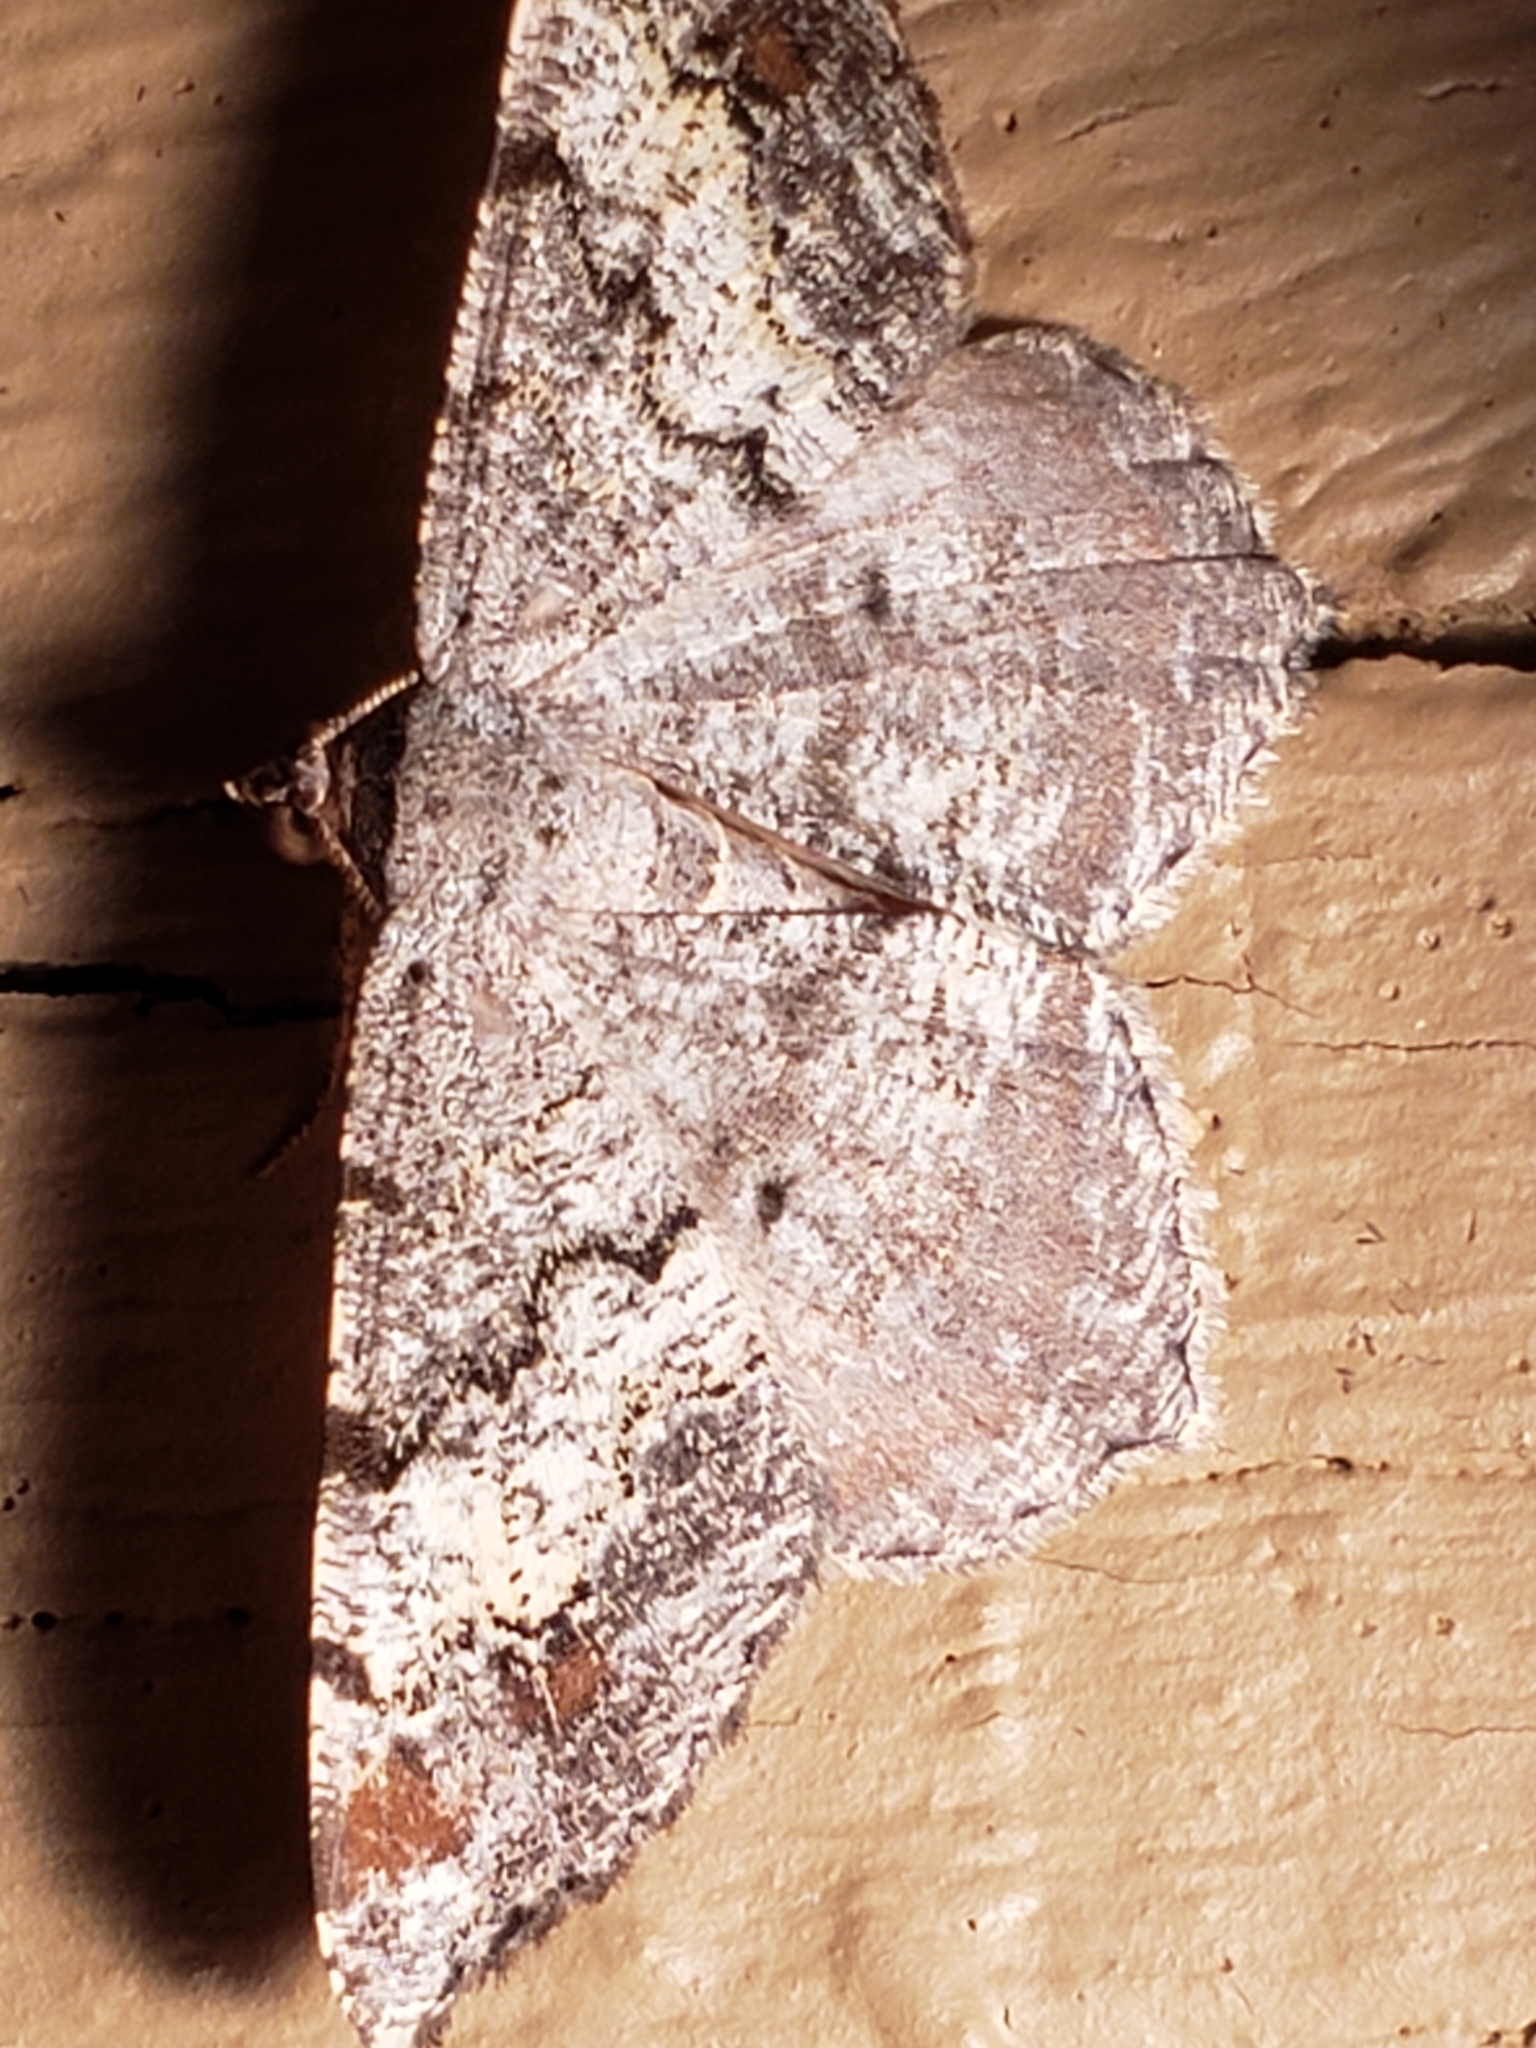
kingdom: Animalia
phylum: Arthropoda
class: Insecta
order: Lepidoptera
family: Geometridae
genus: Macaria
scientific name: Macaria granitata
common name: Granite moth
